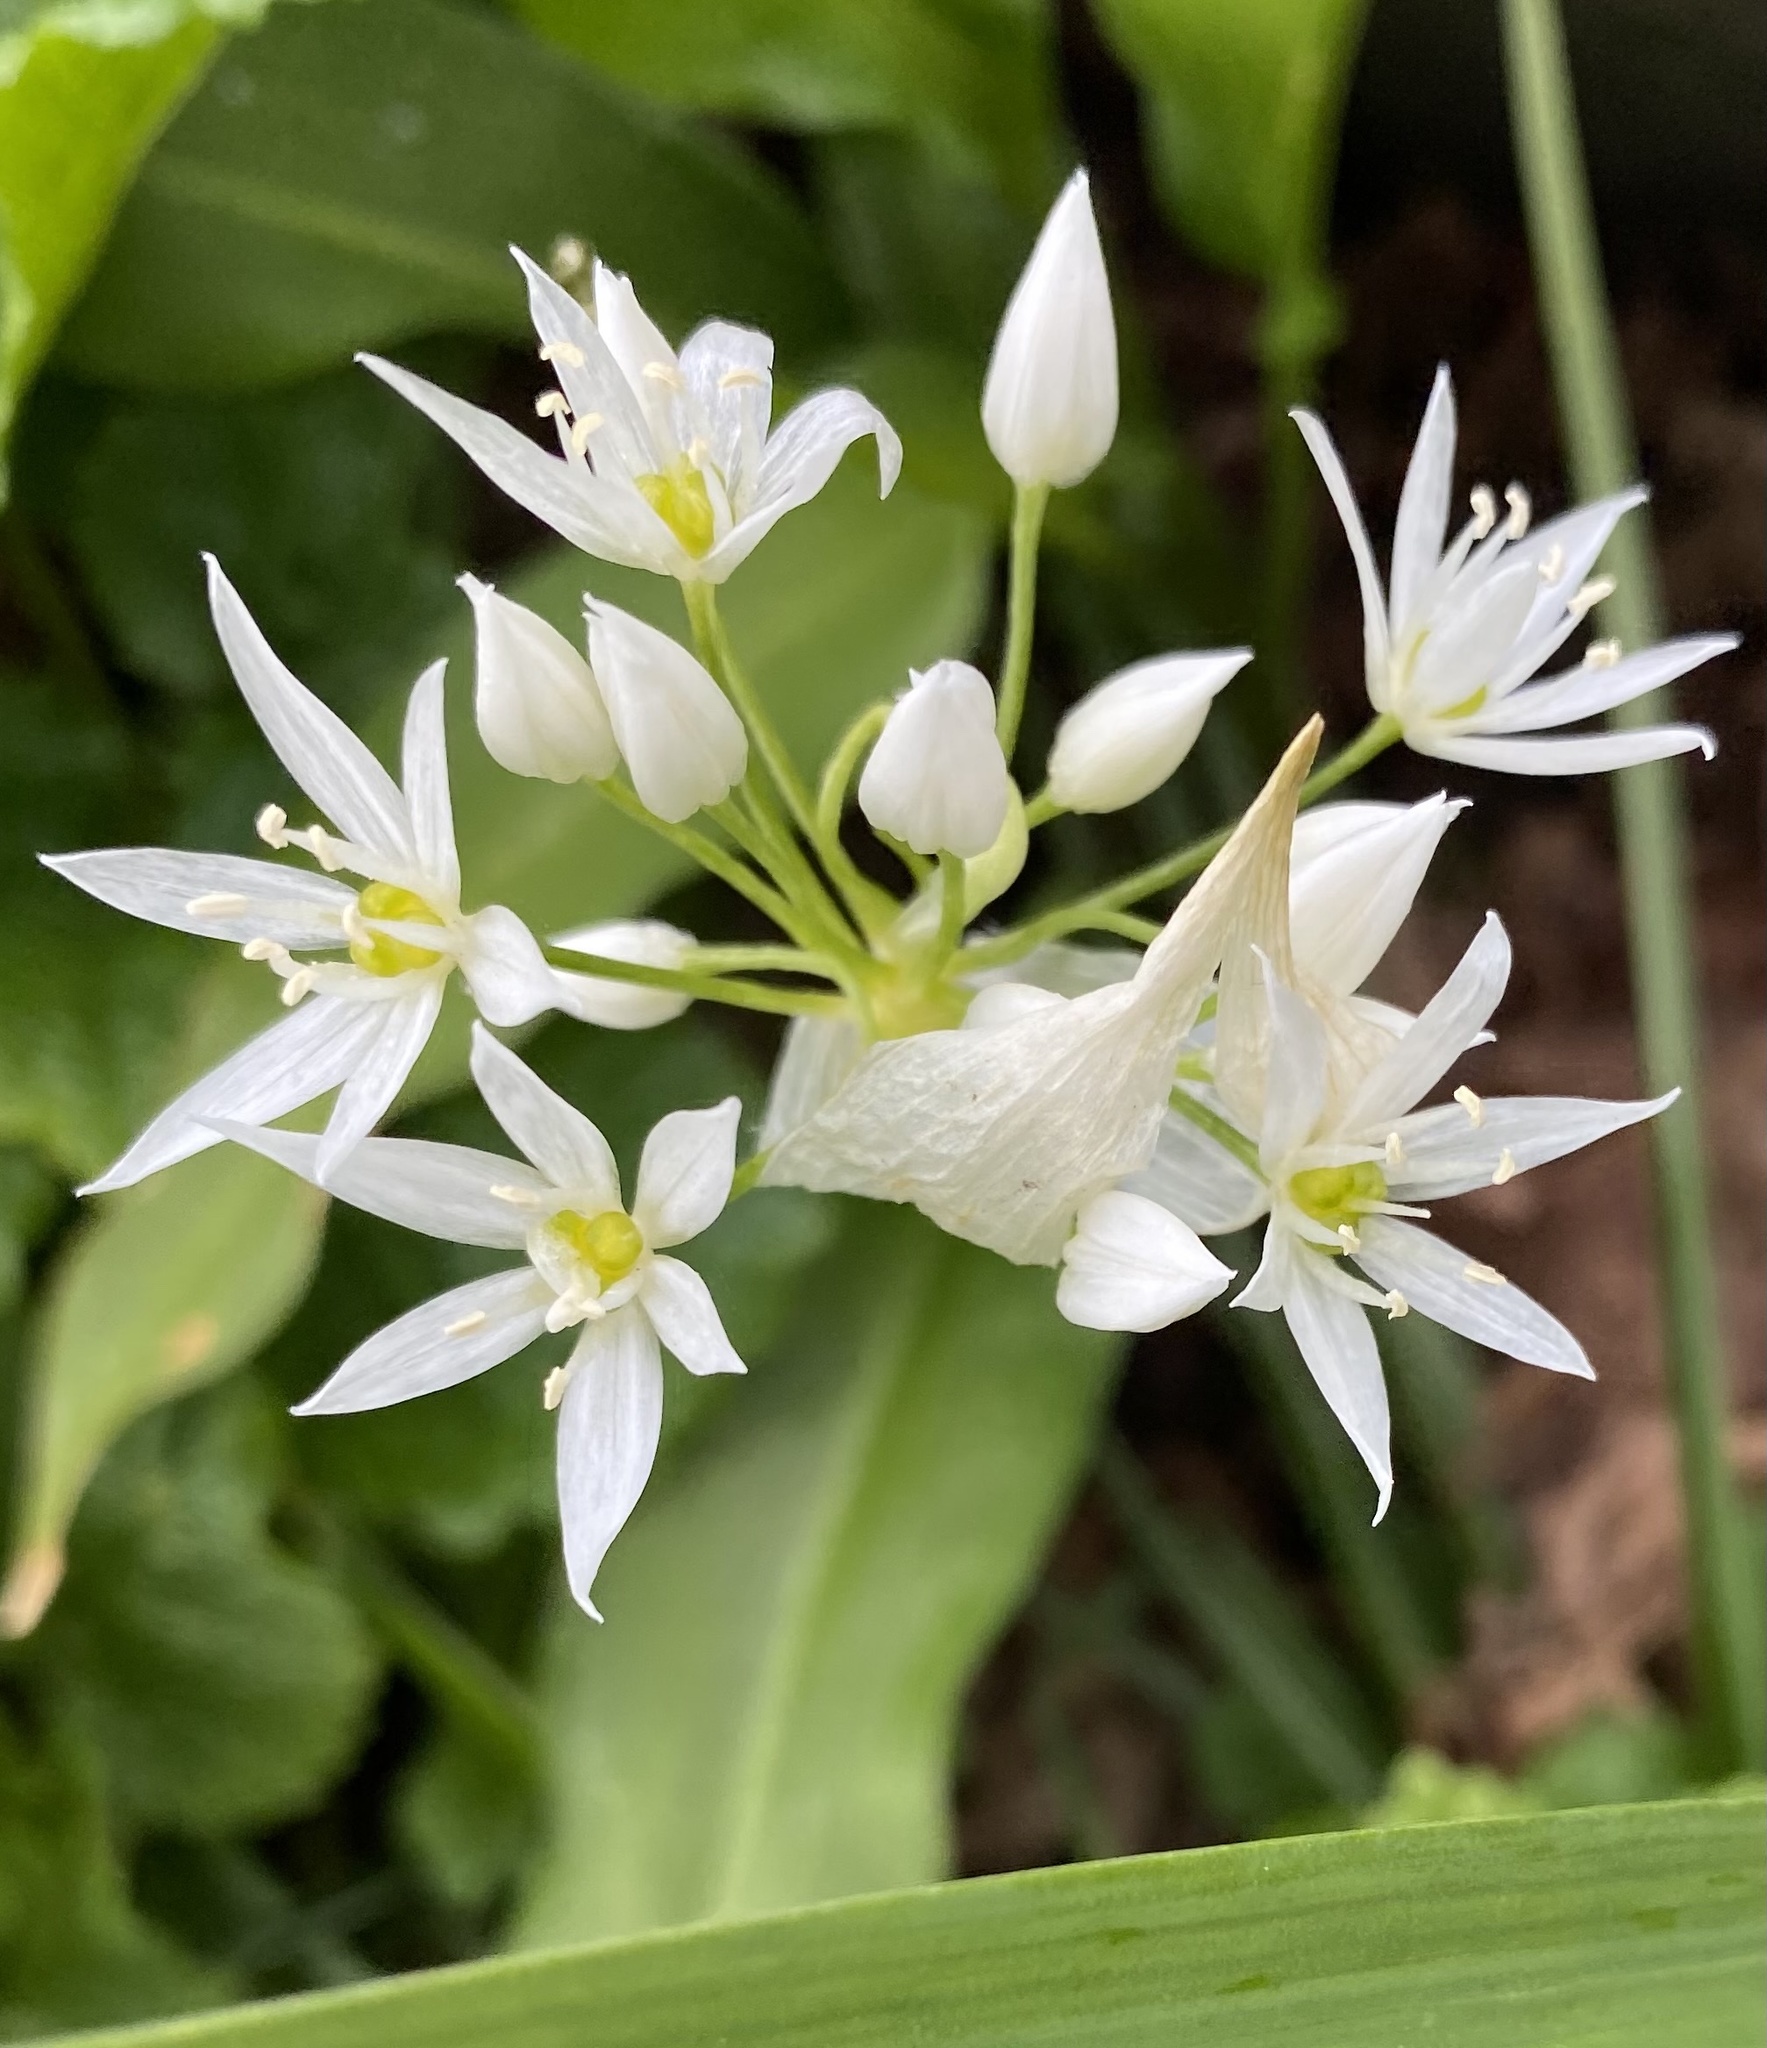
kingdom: Plantae
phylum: Tracheophyta
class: Liliopsida
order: Asparagales
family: Amaryllidaceae
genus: Allium
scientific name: Allium ursinum
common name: Ramsons
